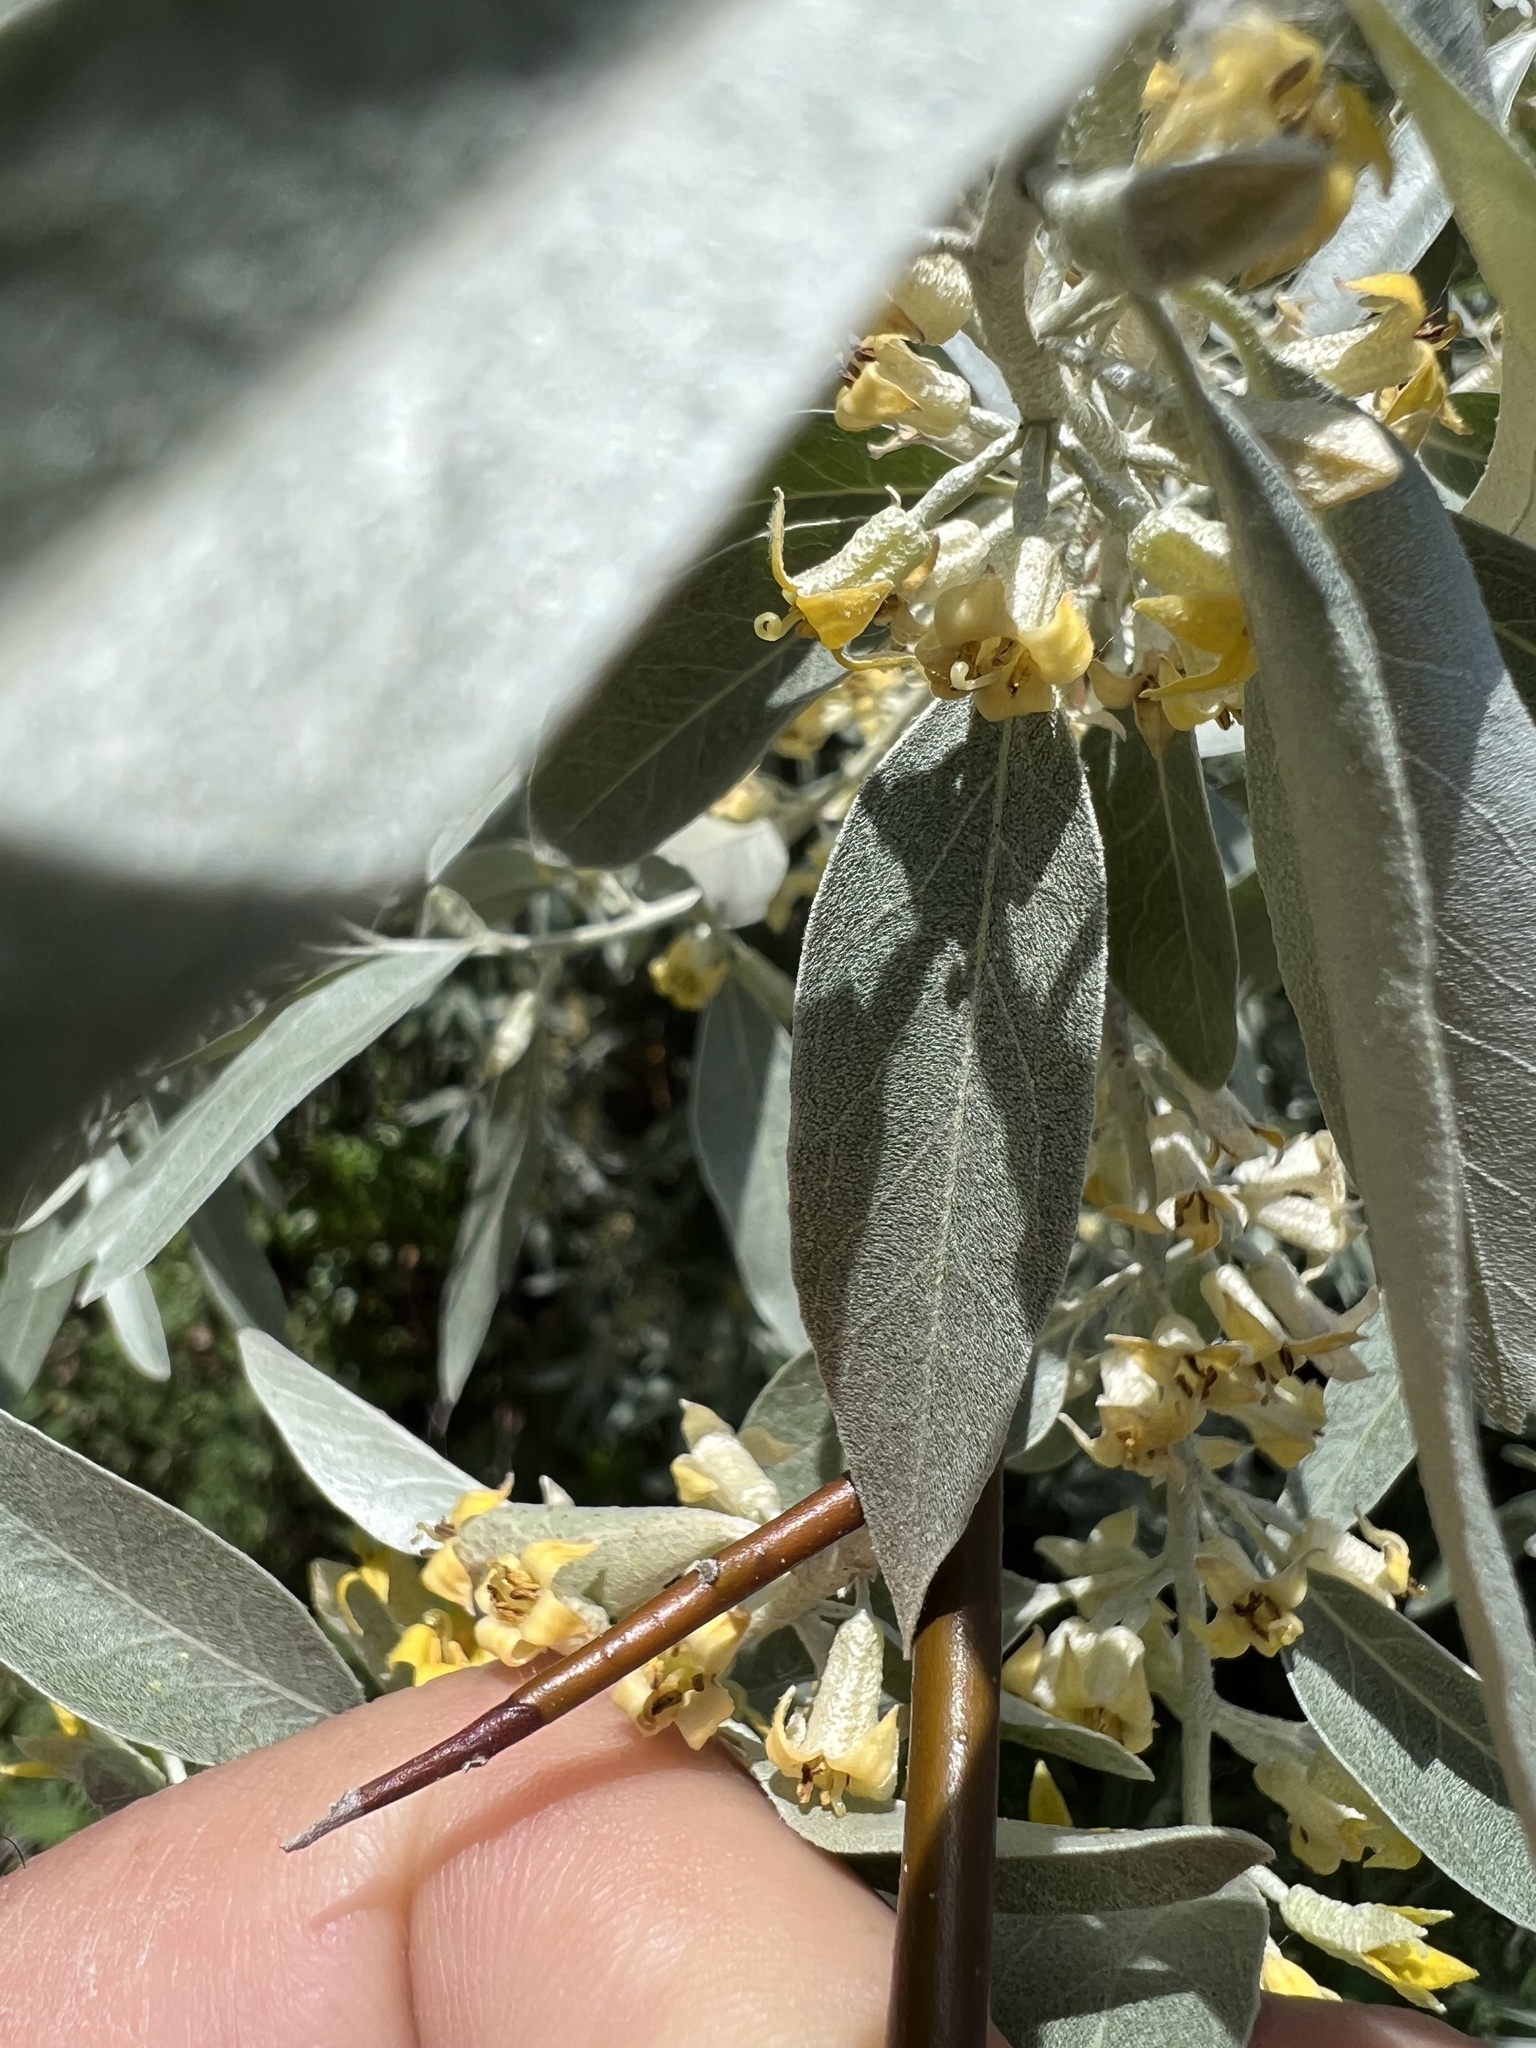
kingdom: Plantae
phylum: Tracheophyta
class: Magnoliopsida
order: Rosales
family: Elaeagnaceae
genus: Elaeagnus
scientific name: Elaeagnus angustifolia
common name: Russian olive
